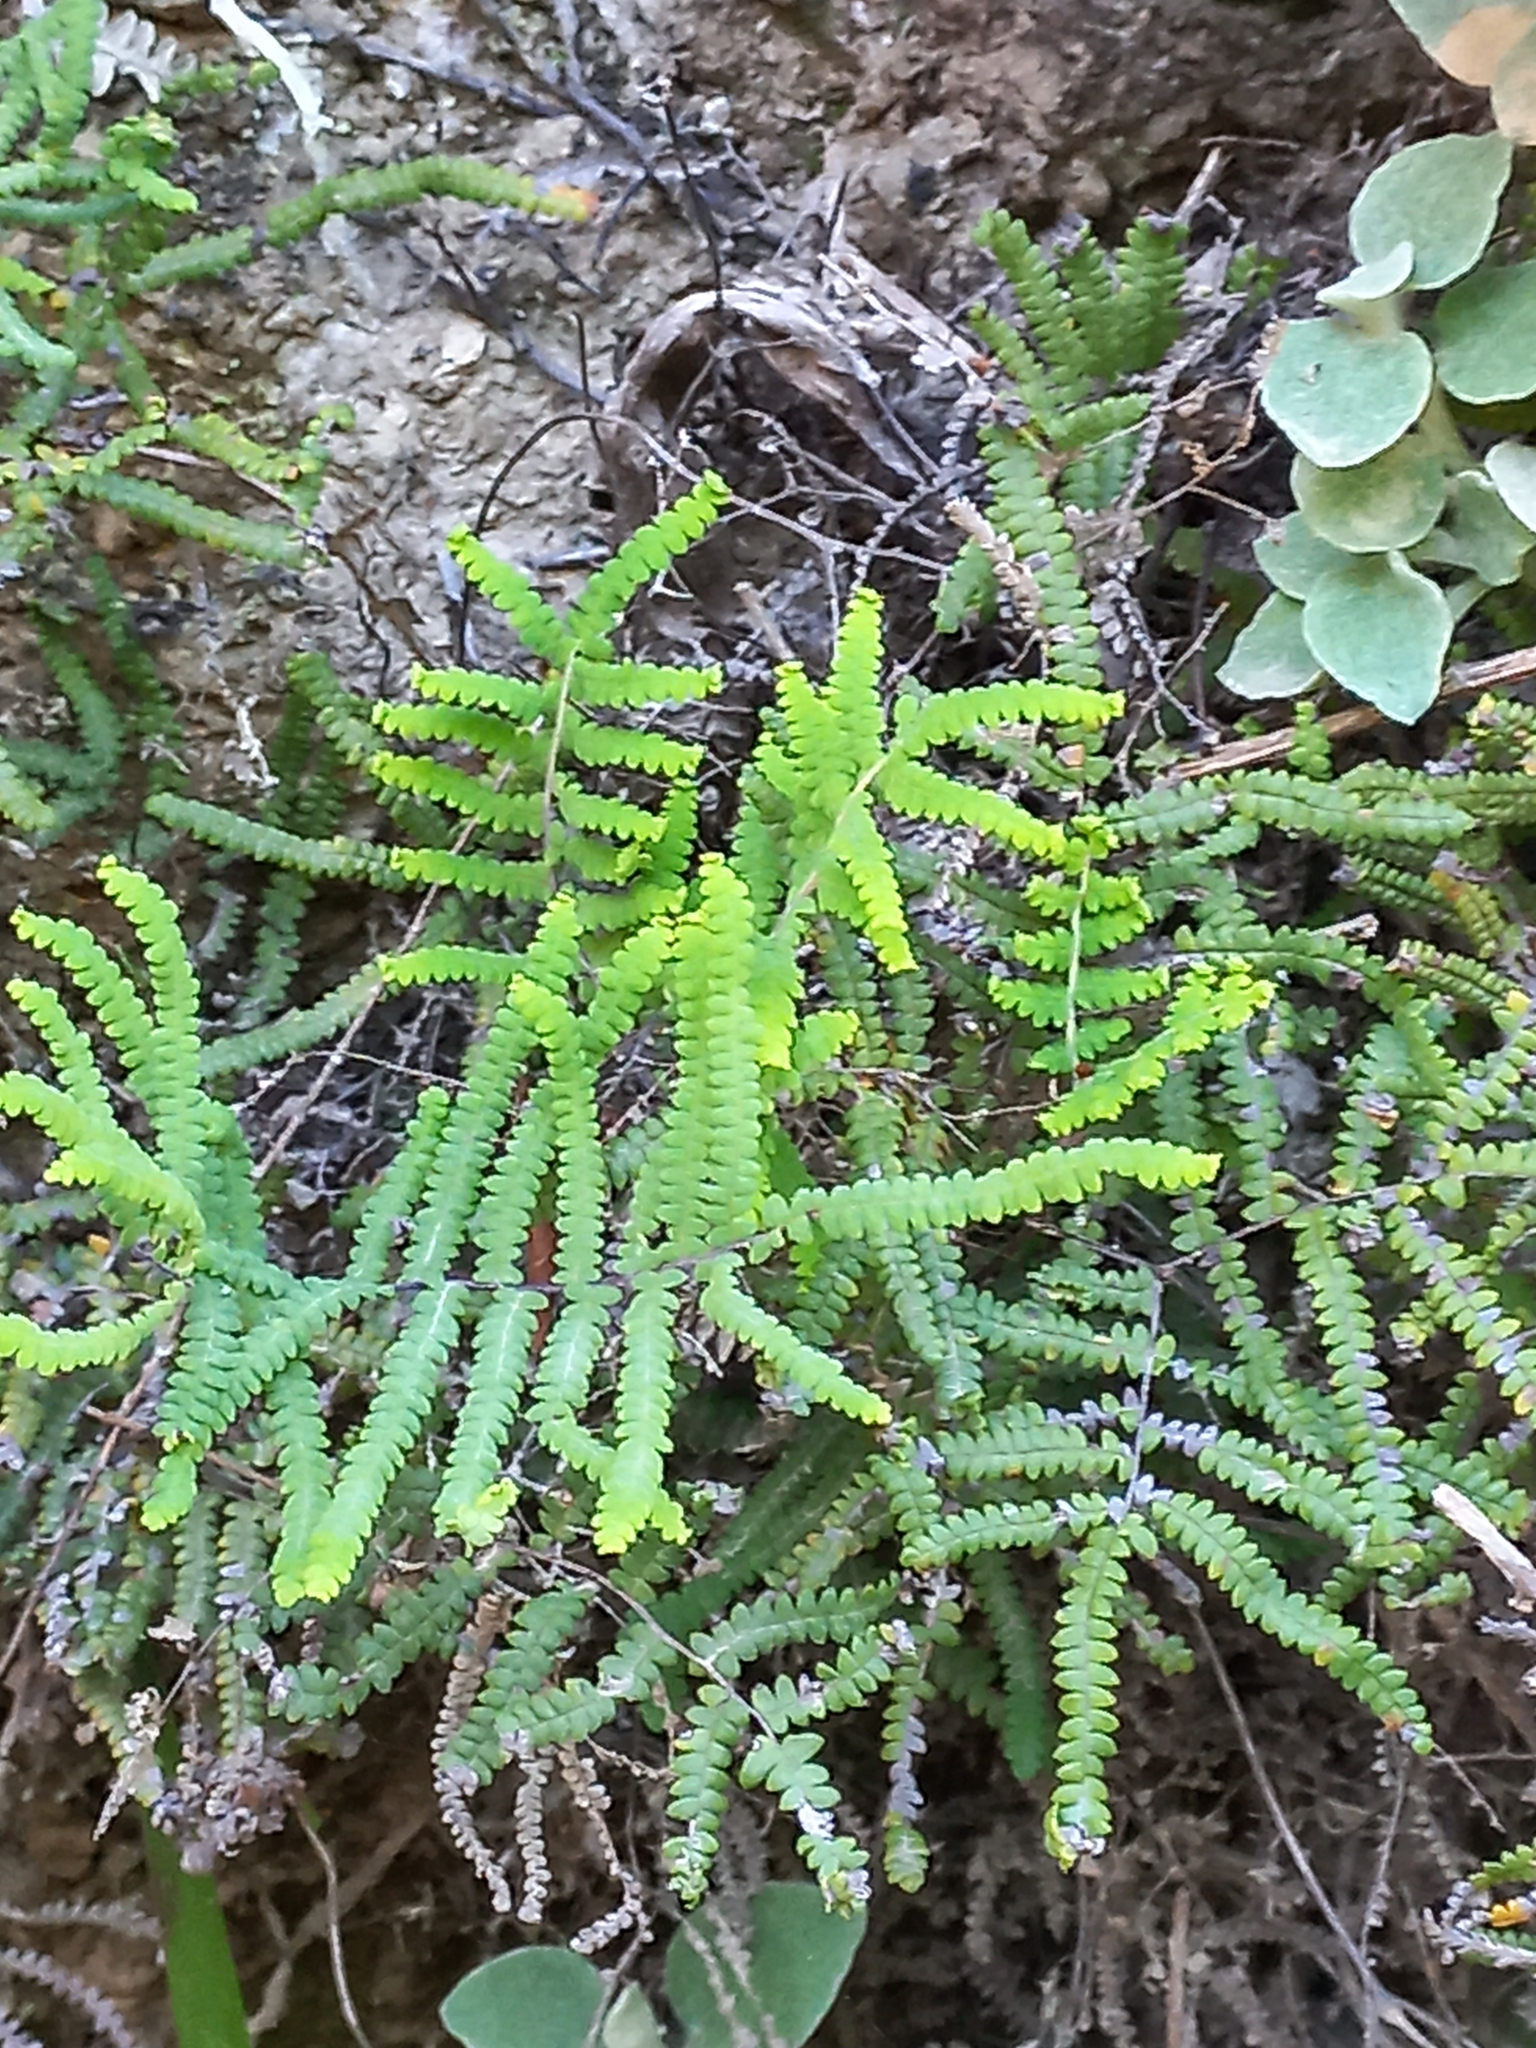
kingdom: Plantae
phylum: Tracheophyta
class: Polypodiopsida
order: Gleicheniales
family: Gleicheniaceae
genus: Gleichenia
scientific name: Gleichenia polypodioides
